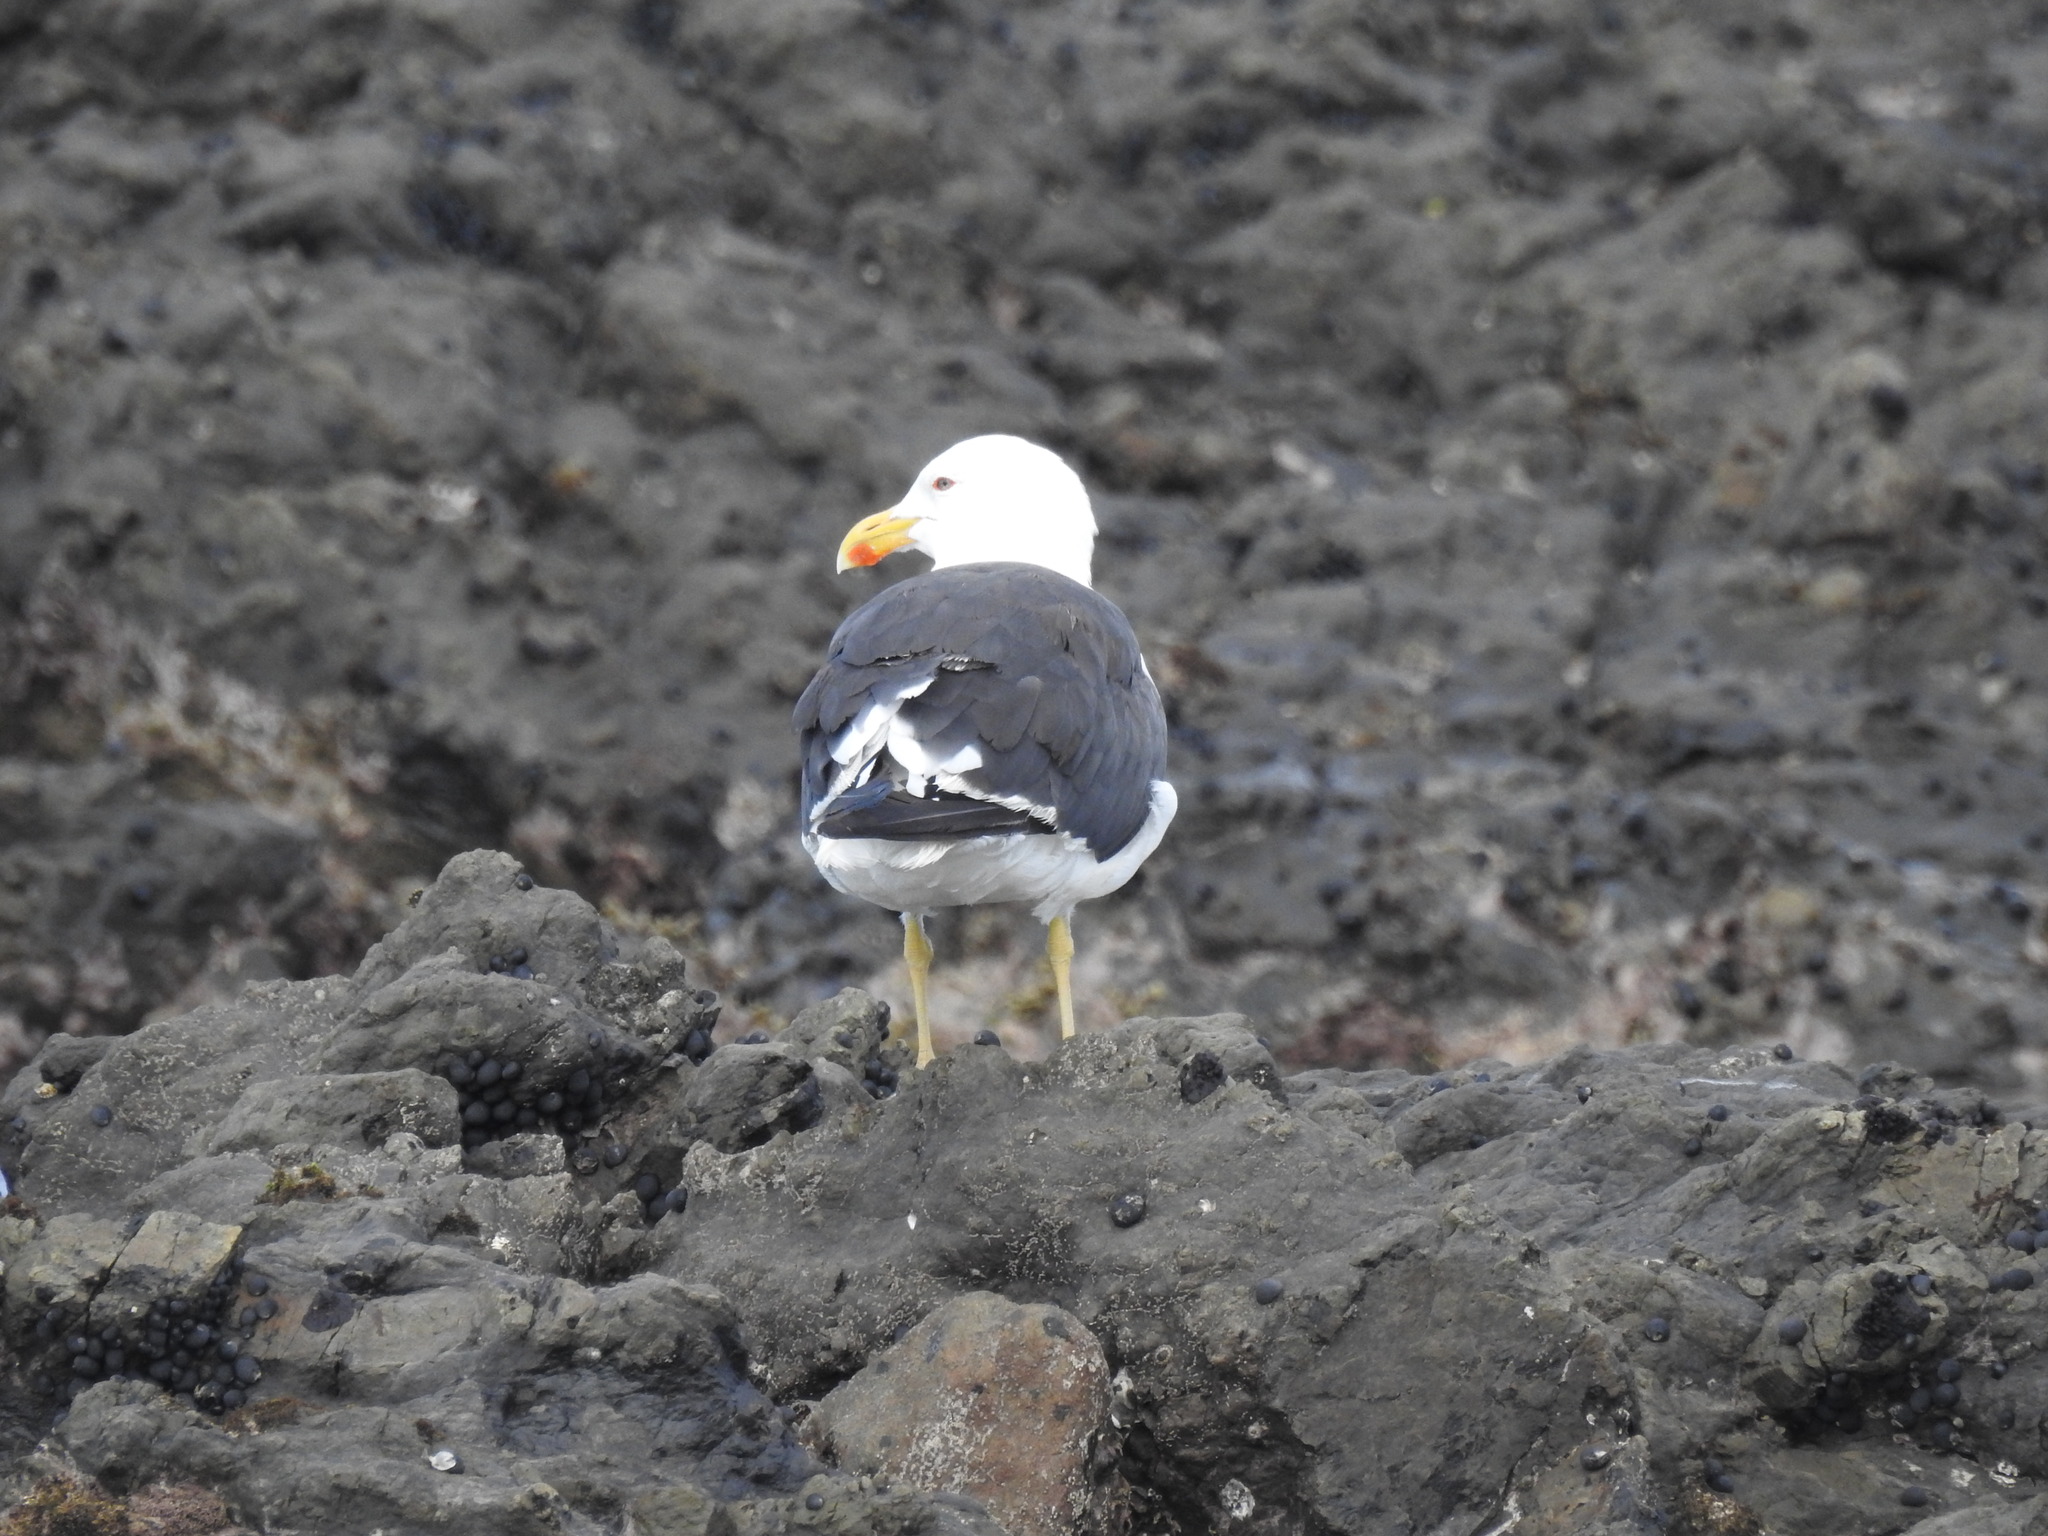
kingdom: Animalia
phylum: Chordata
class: Aves
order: Charadriiformes
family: Laridae
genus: Larus
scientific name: Larus dominicanus
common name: Kelp gull
